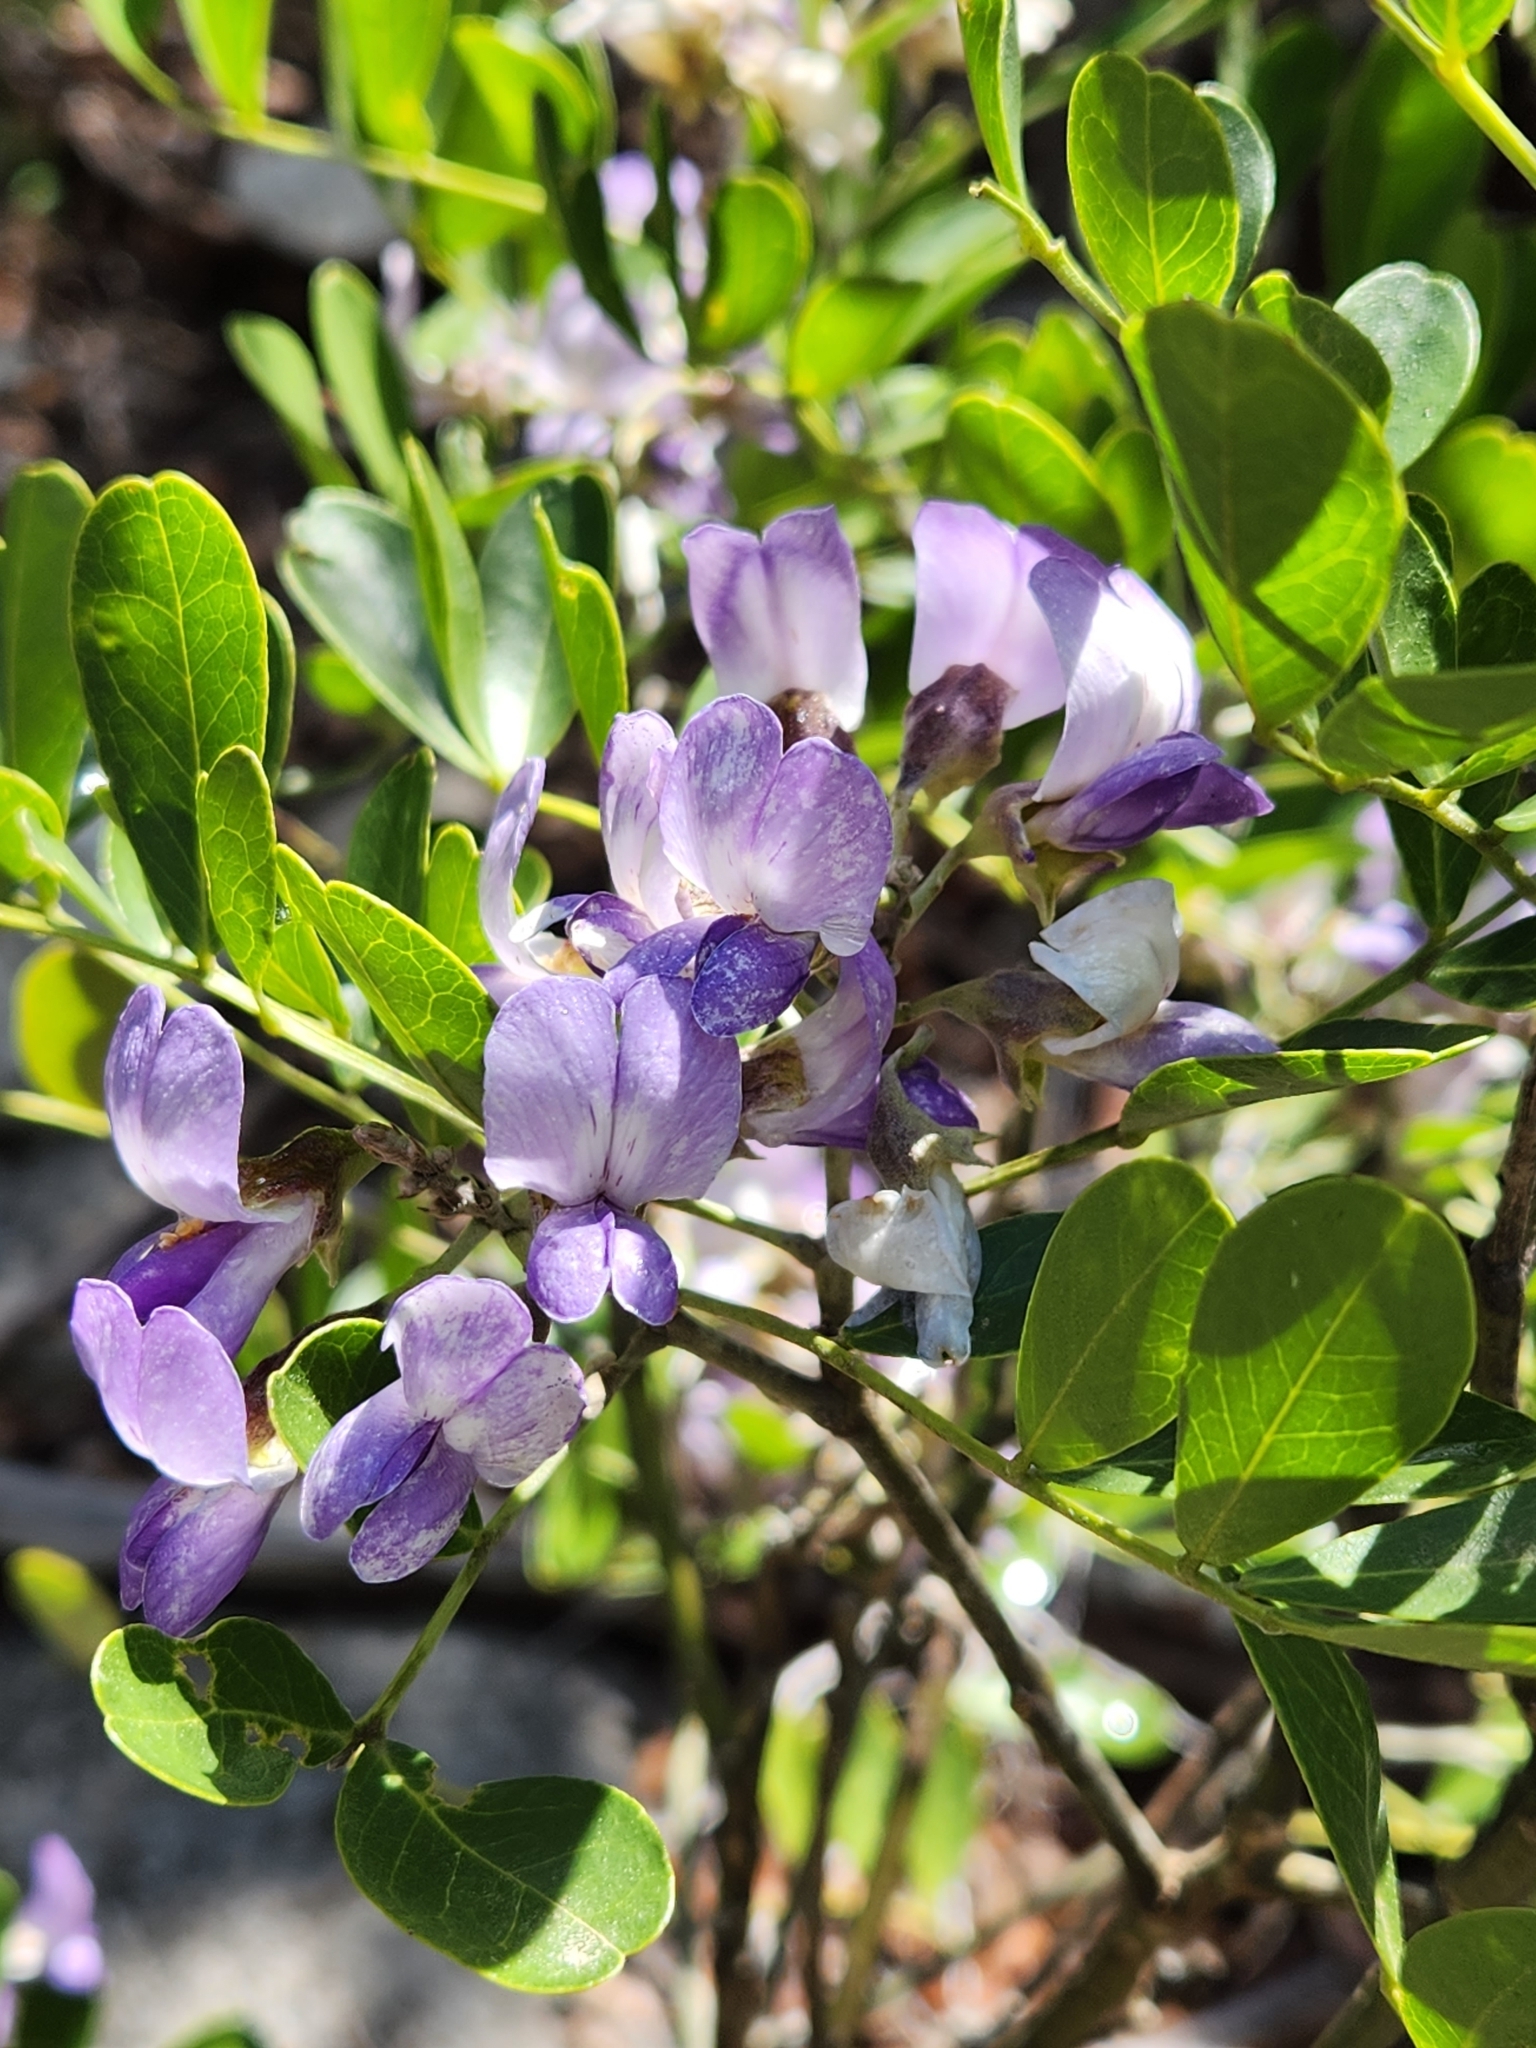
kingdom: Plantae
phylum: Tracheophyta
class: Magnoliopsida
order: Fabales
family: Fabaceae
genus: Dermatophyllum
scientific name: Dermatophyllum secundiflorum
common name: Texas-mountain-laurel
